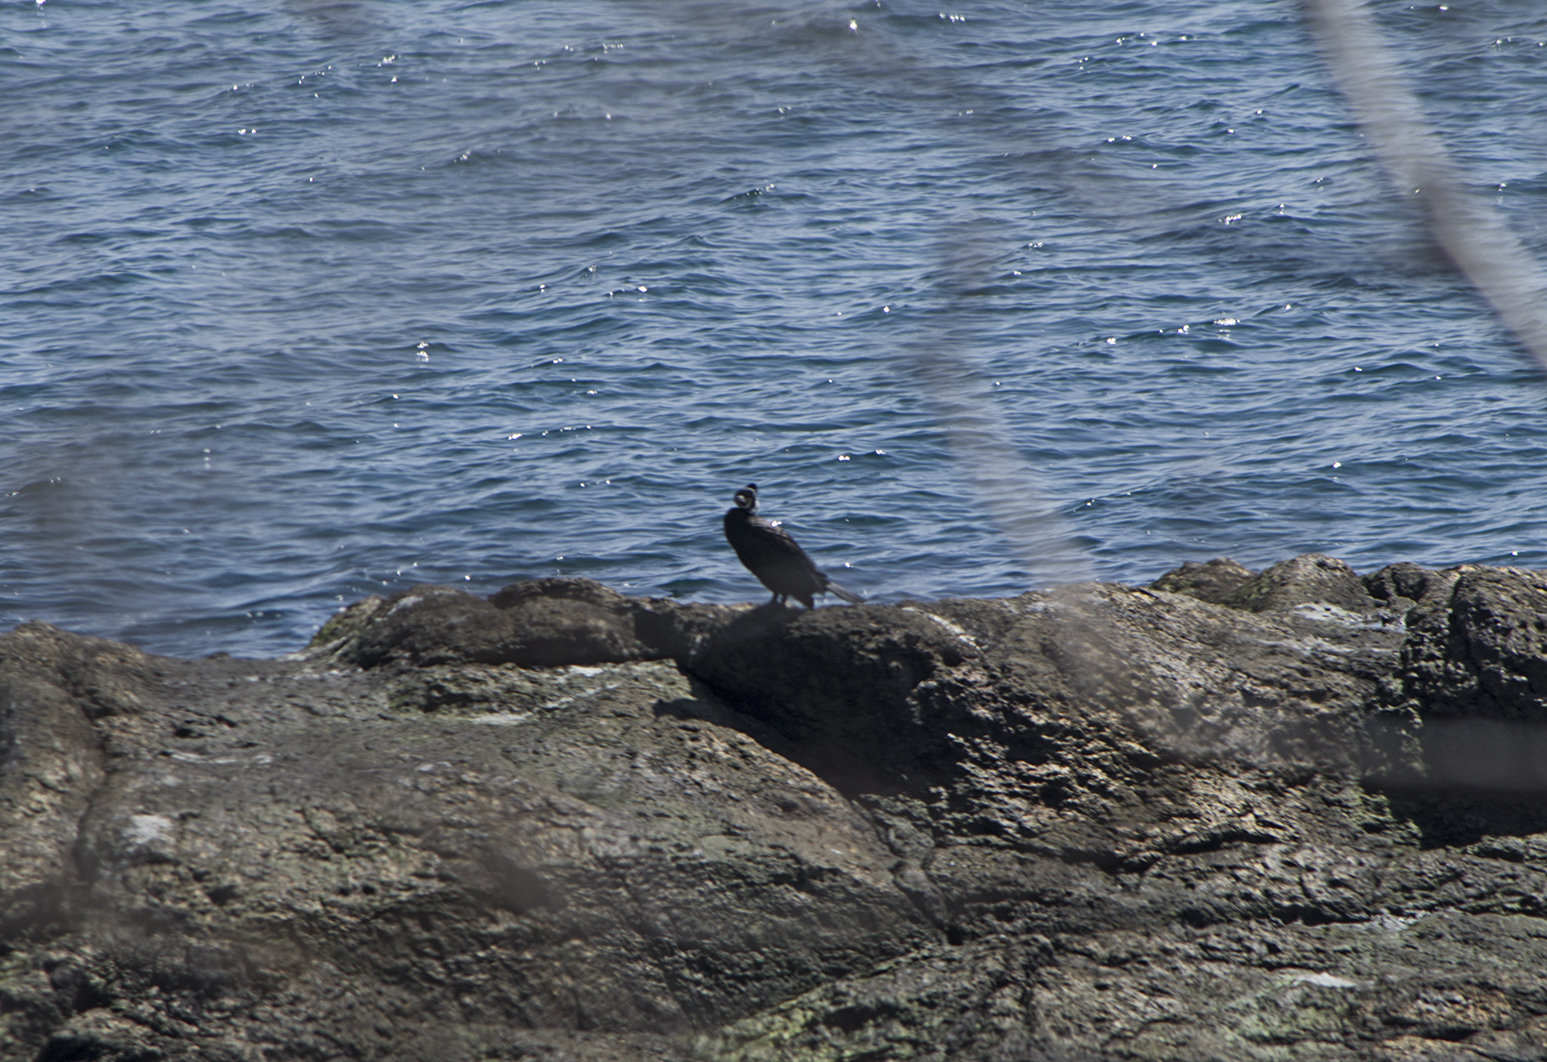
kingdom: Animalia
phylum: Chordata
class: Aves
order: Suliformes
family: Phalacrocoracidae
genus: Phalacrocorax
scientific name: Phalacrocorax carbo
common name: Great cormorant
